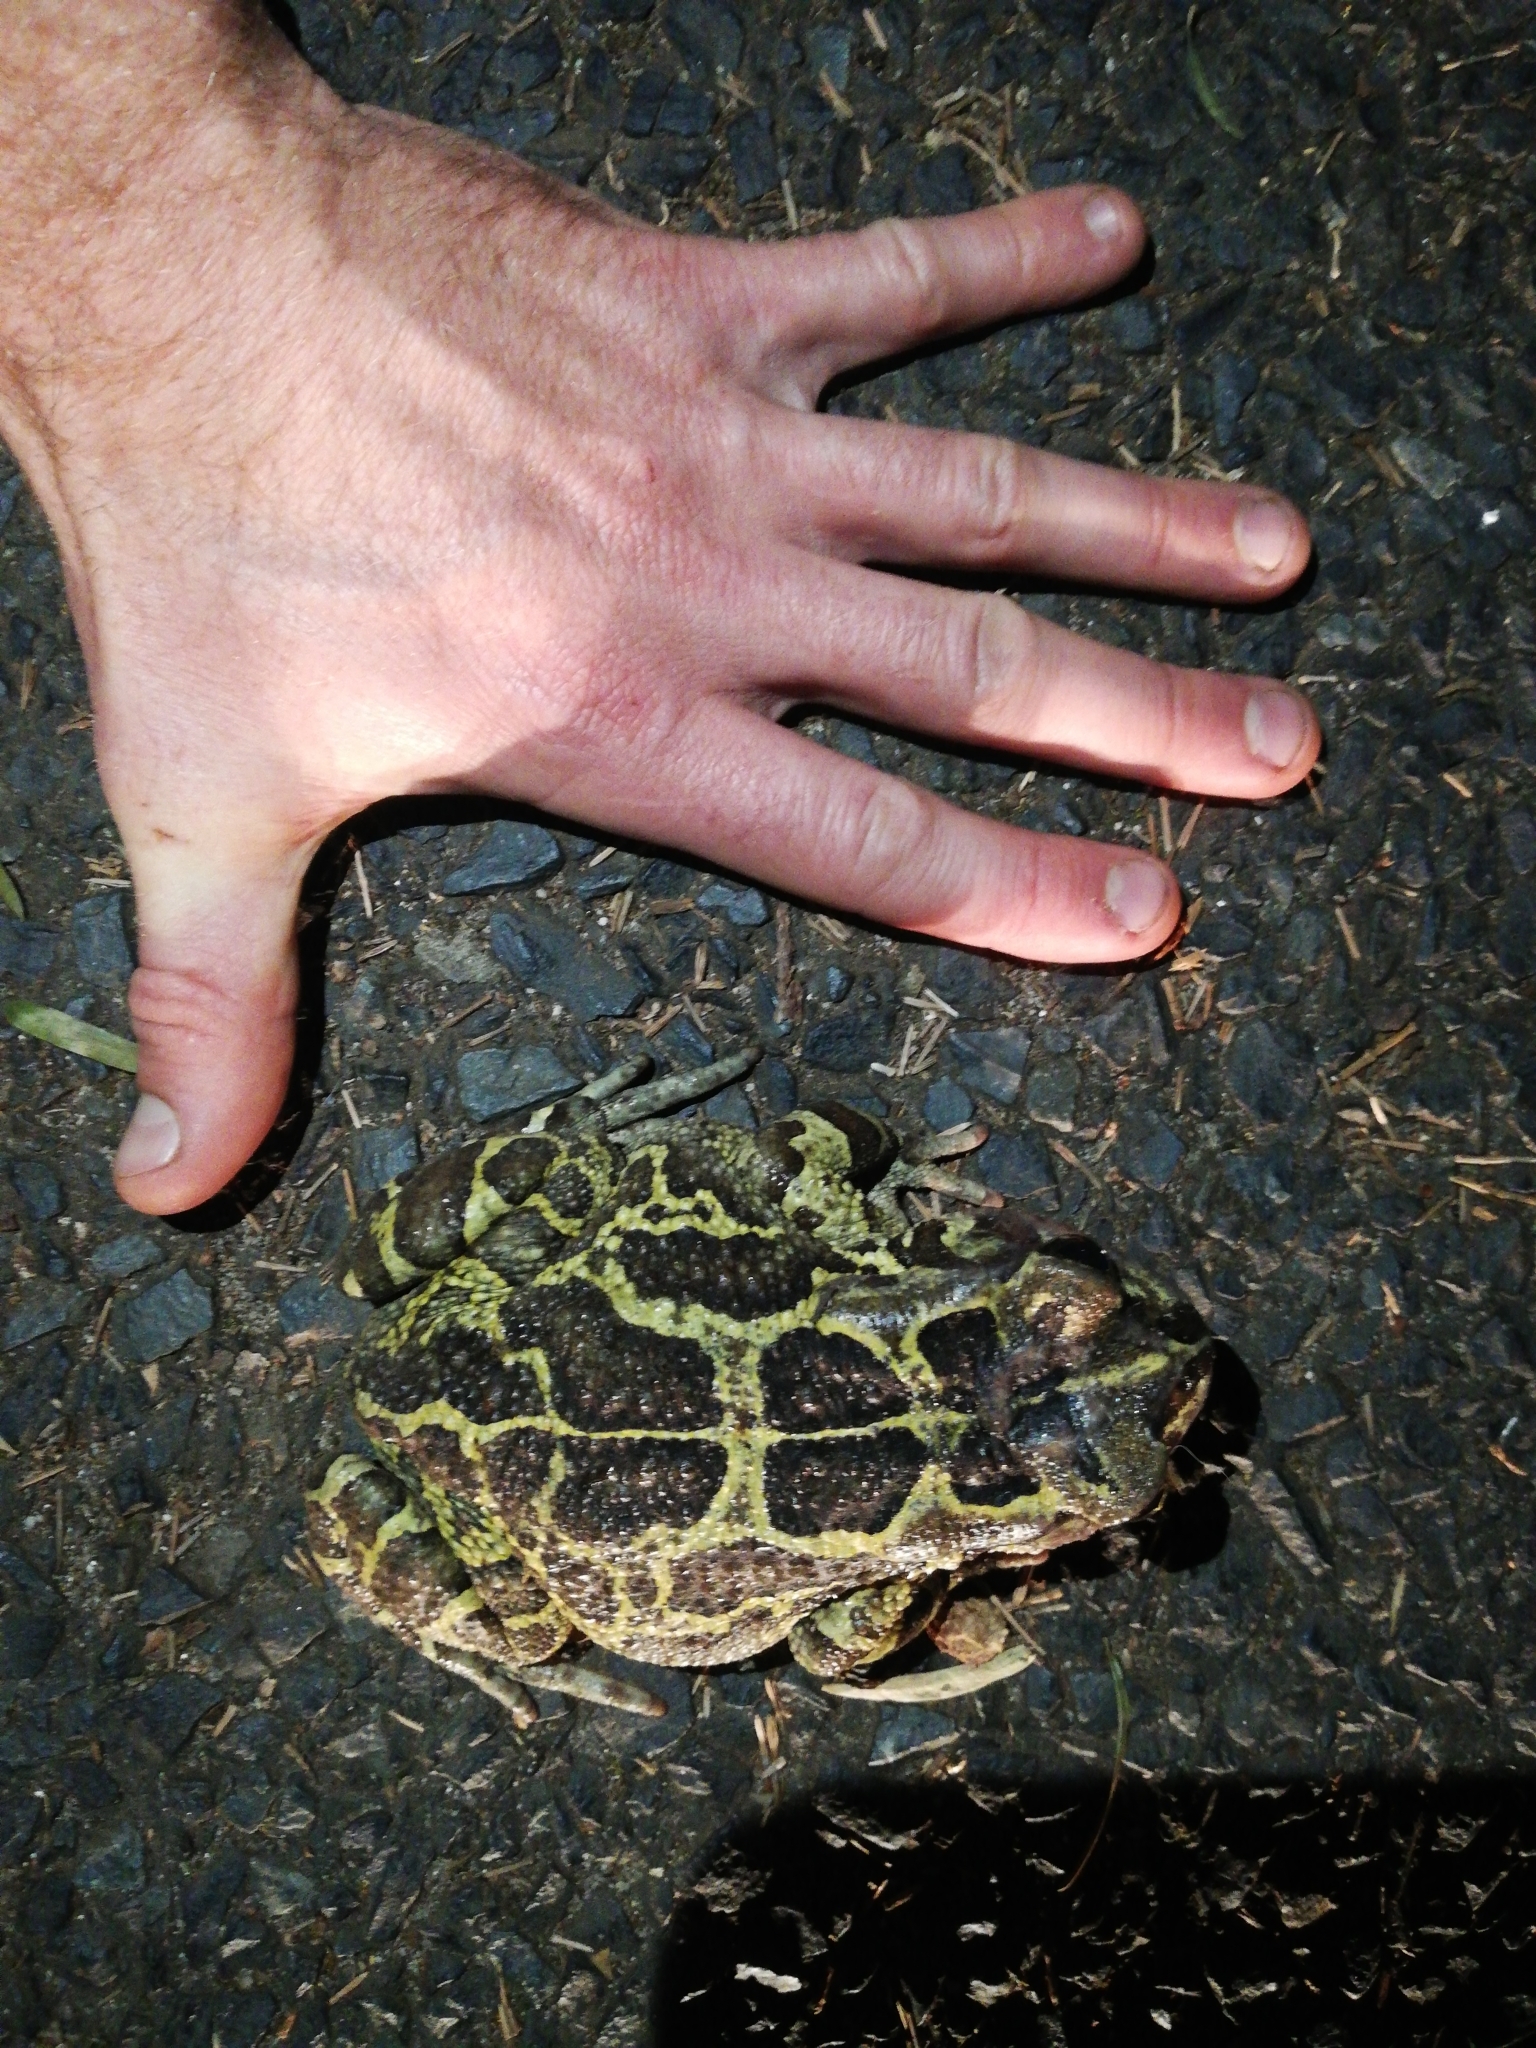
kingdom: Animalia
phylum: Chordata
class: Amphibia
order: Anura
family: Bufonidae
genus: Sclerophrys
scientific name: Sclerophrys pantherina
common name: Panther toad
